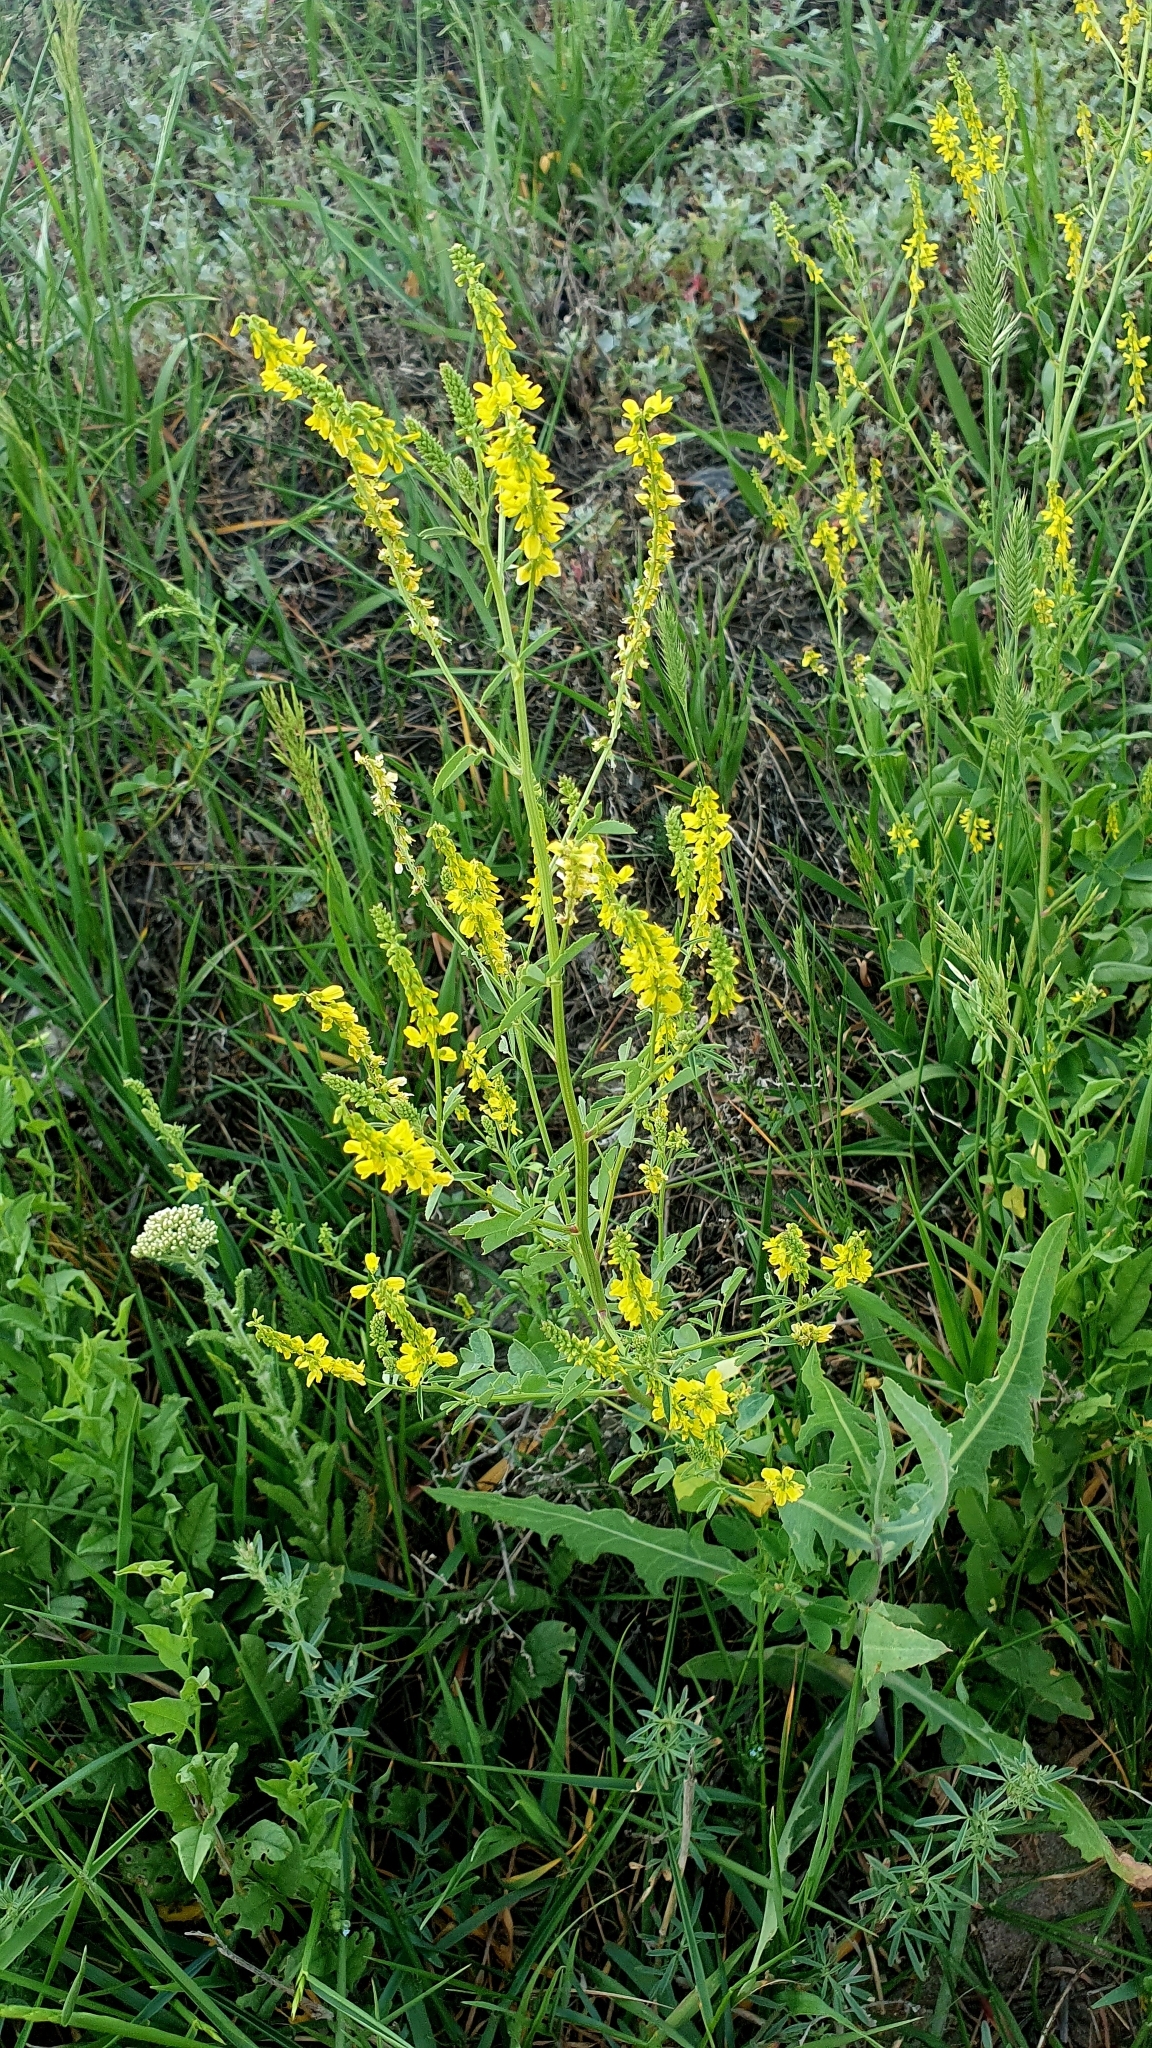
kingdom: Plantae
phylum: Tracheophyta
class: Magnoliopsida
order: Fabales
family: Fabaceae
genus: Melilotus
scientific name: Melilotus officinalis
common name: Sweetclover
